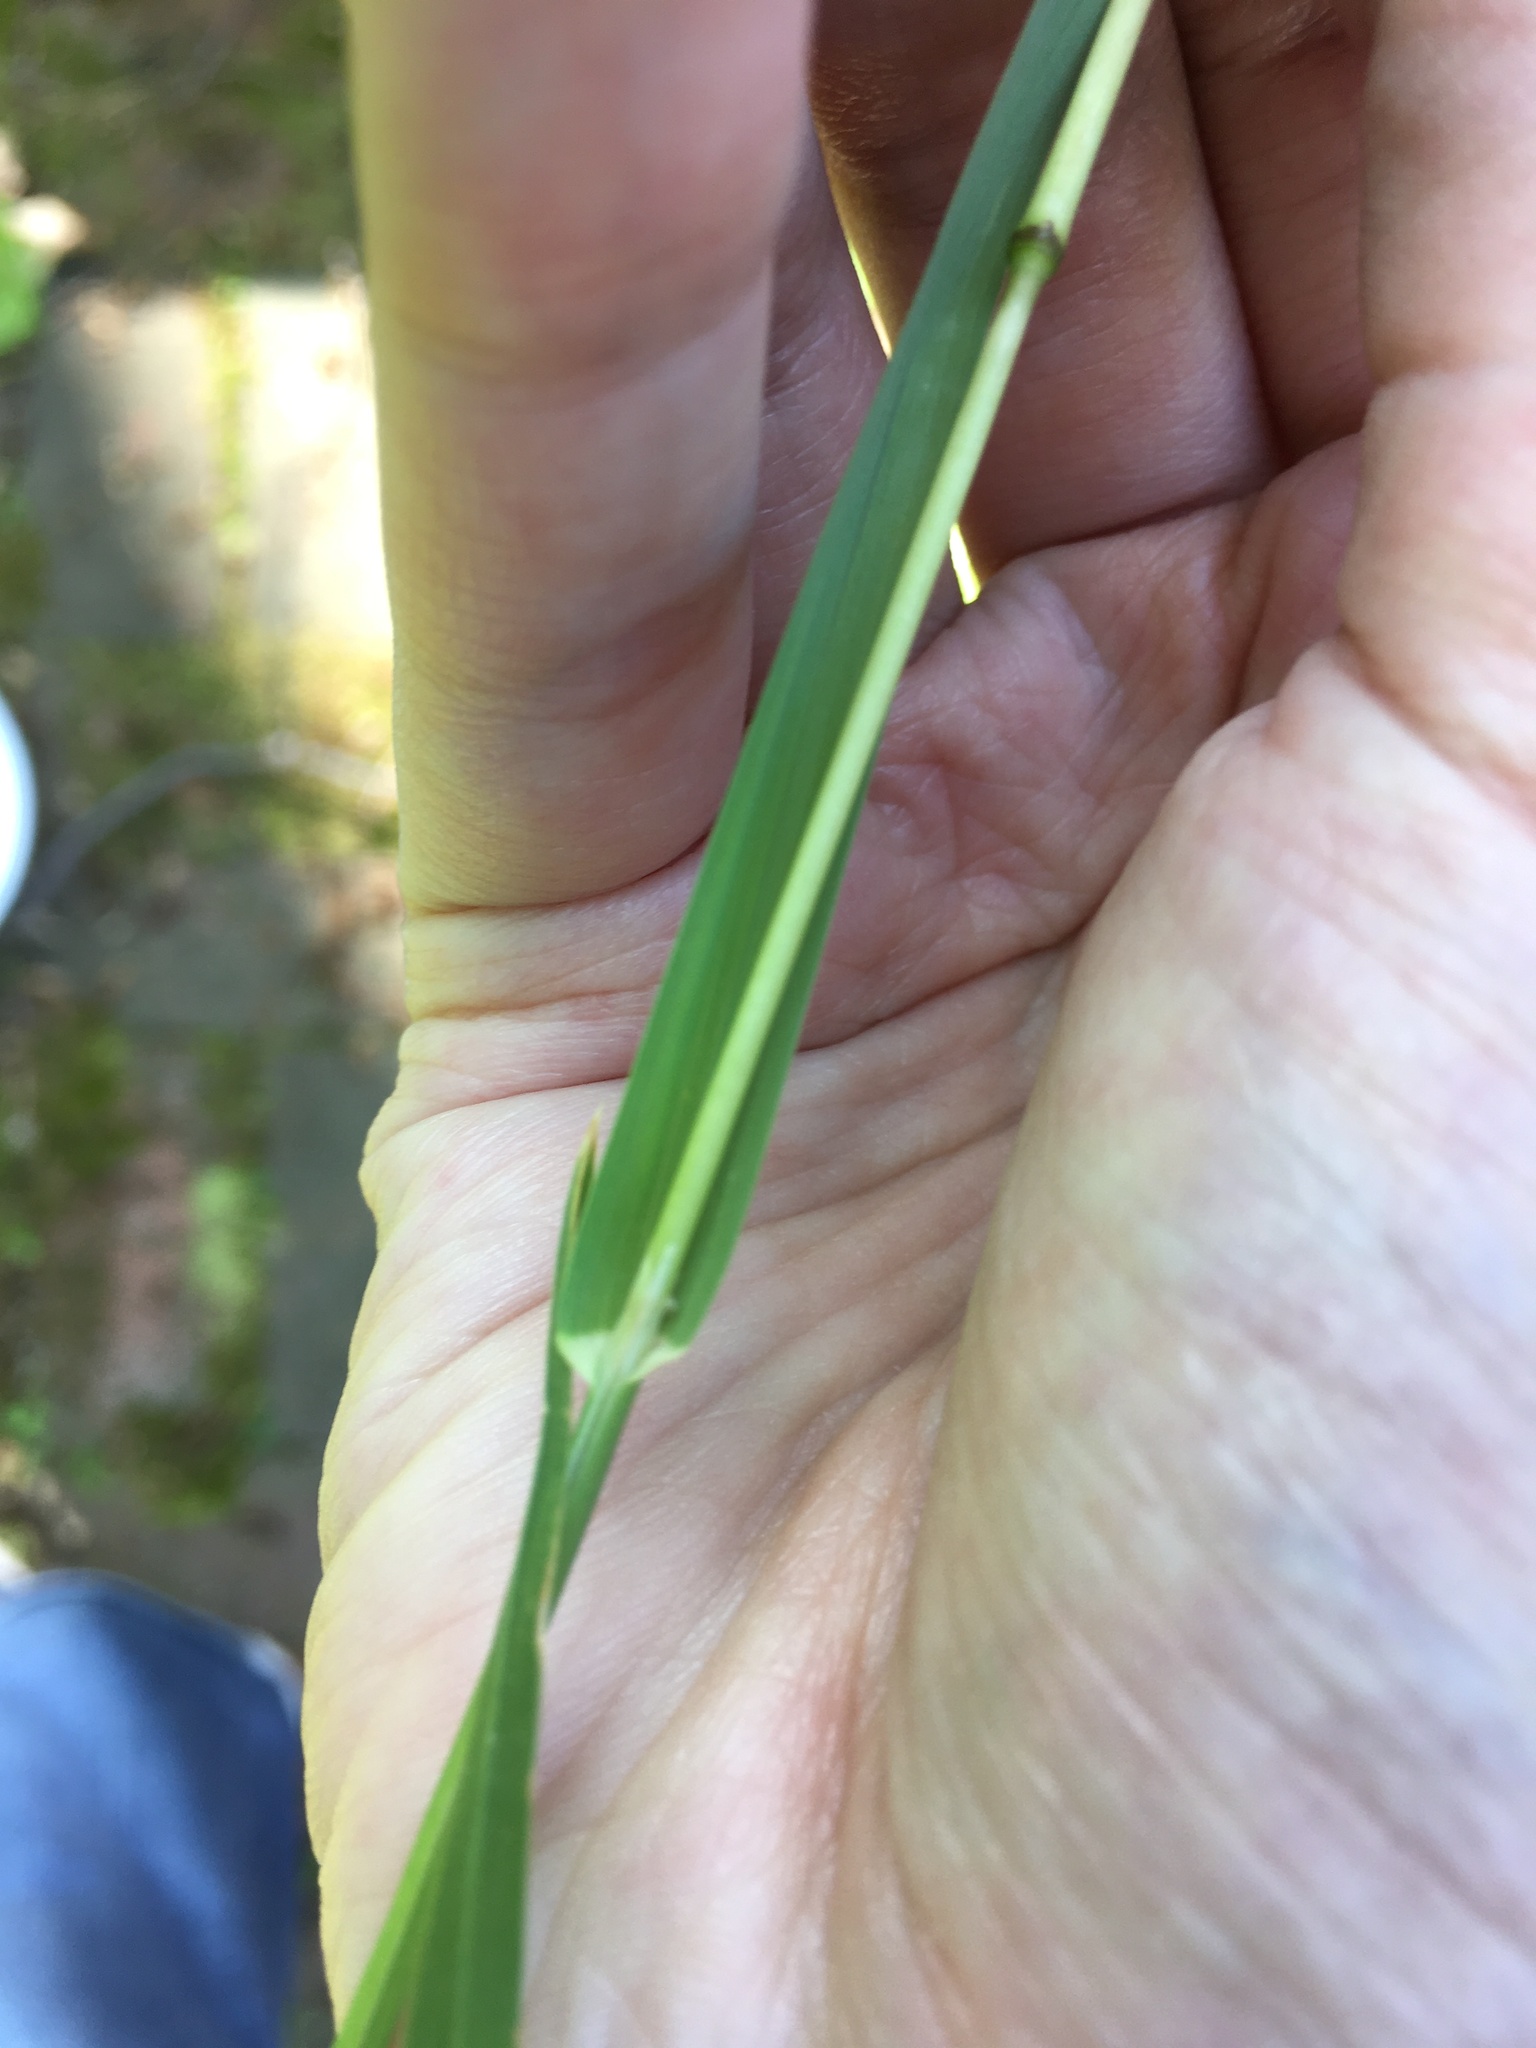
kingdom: Plantae
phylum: Tracheophyta
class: Liliopsida
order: Poales
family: Poaceae
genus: Dactylis
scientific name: Dactylis glomerata
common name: Orchardgrass
